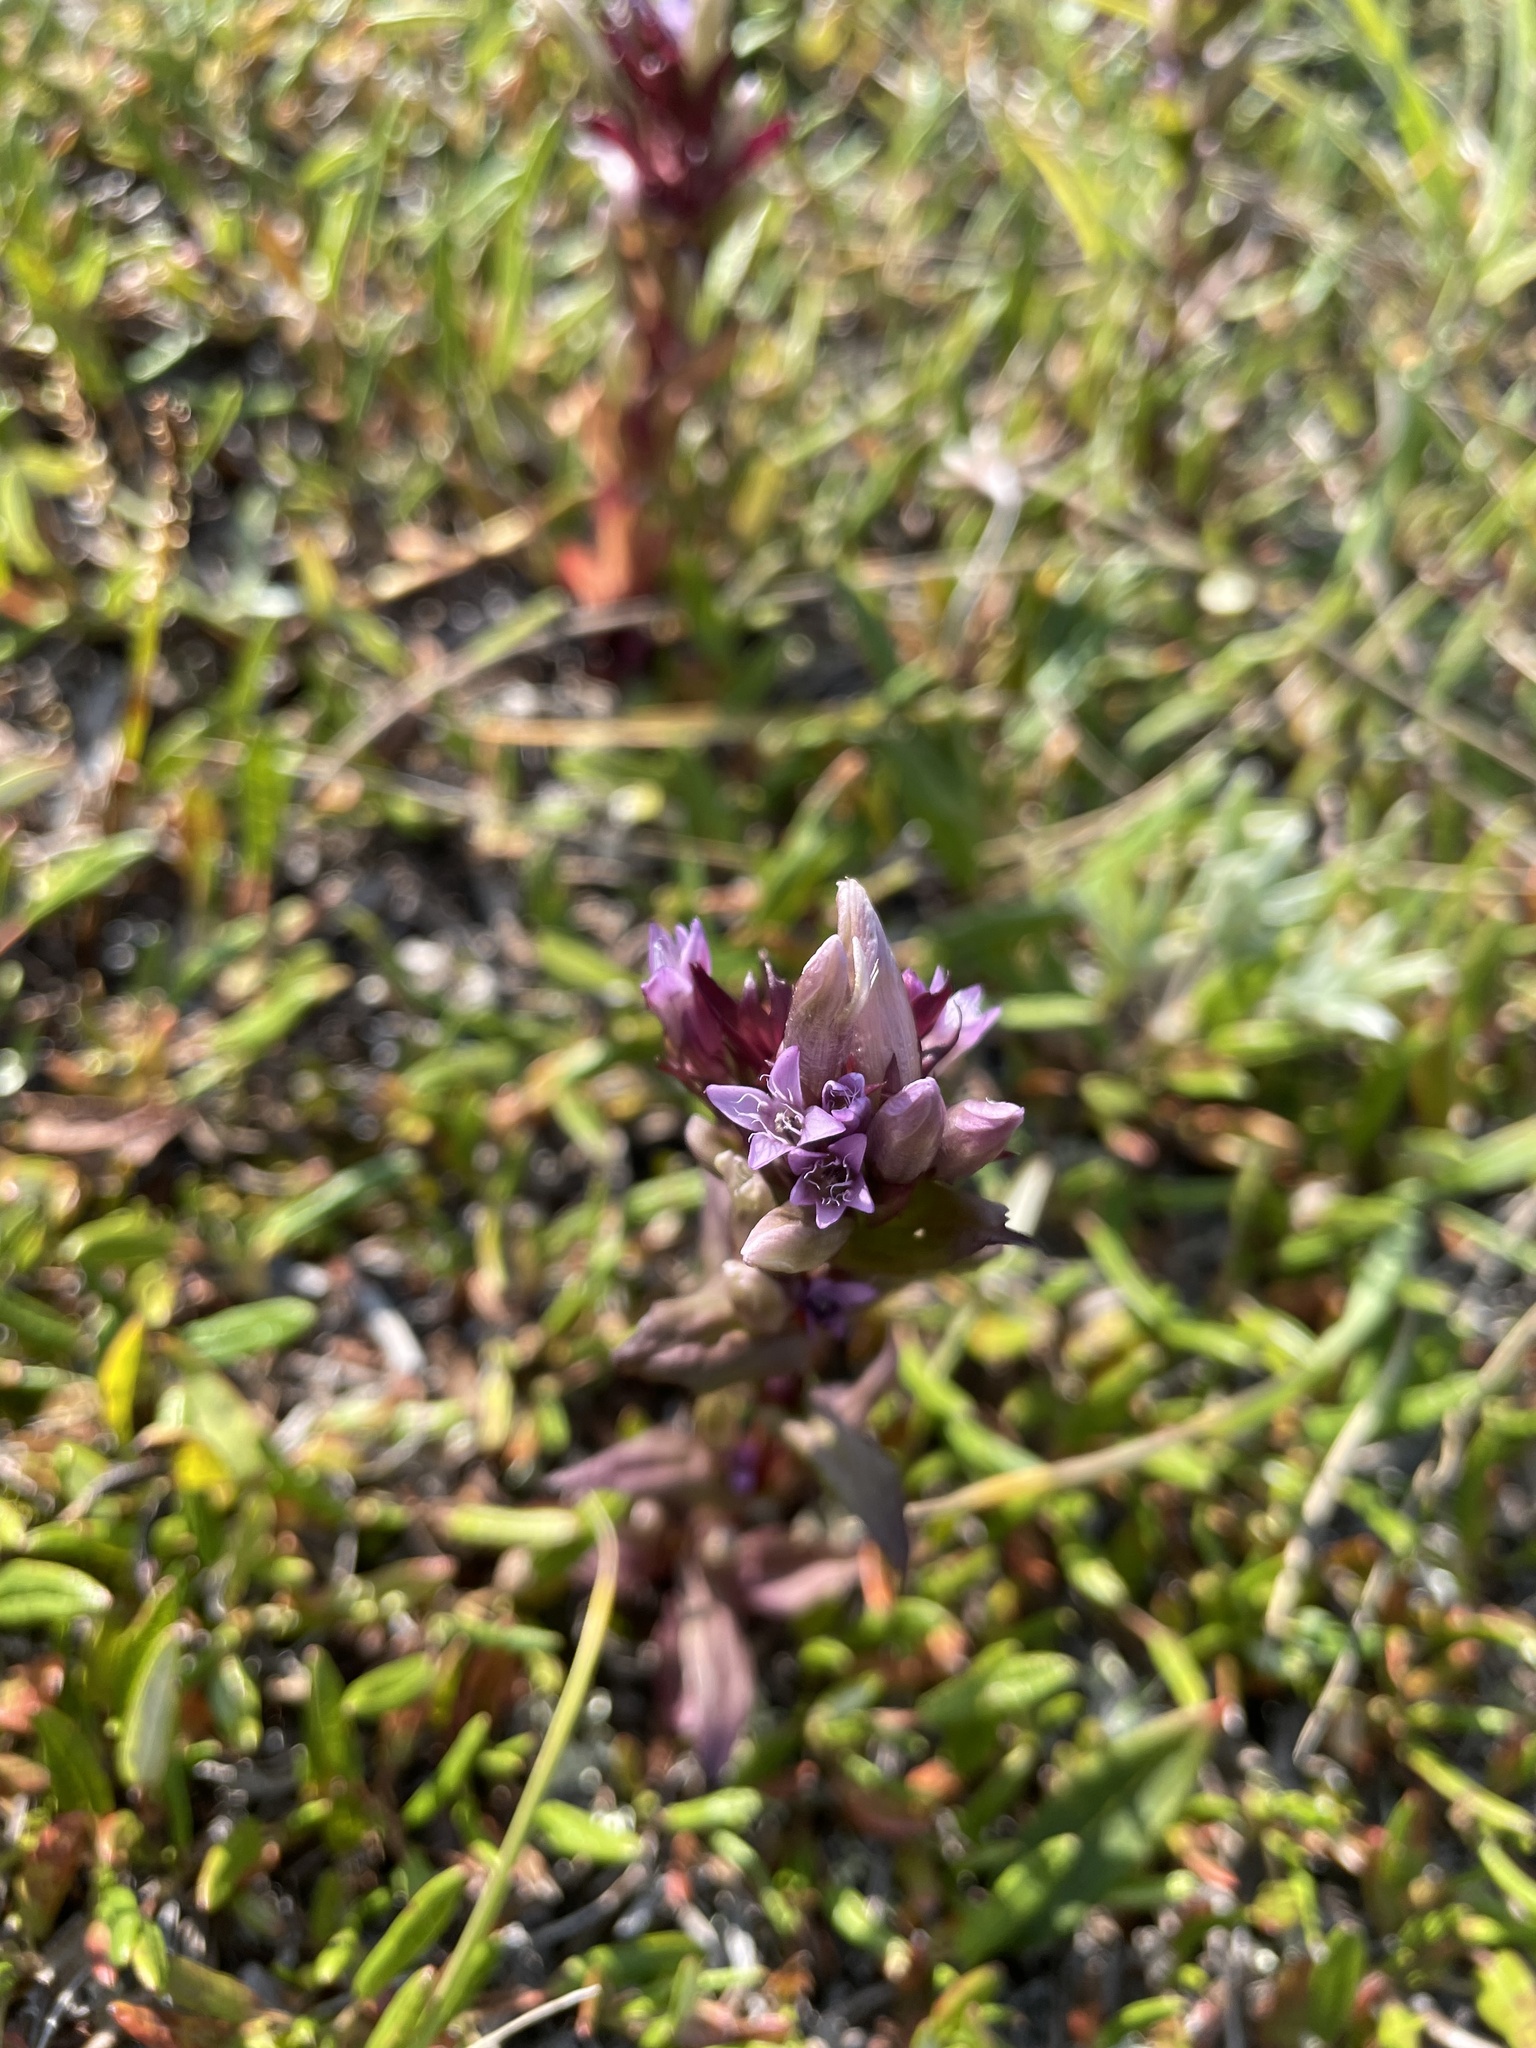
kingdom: Plantae
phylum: Tracheophyta
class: Magnoliopsida
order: Gentianales
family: Gentianaceae
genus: Gentianella
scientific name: Gentianella amarella
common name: Autumn gentian
